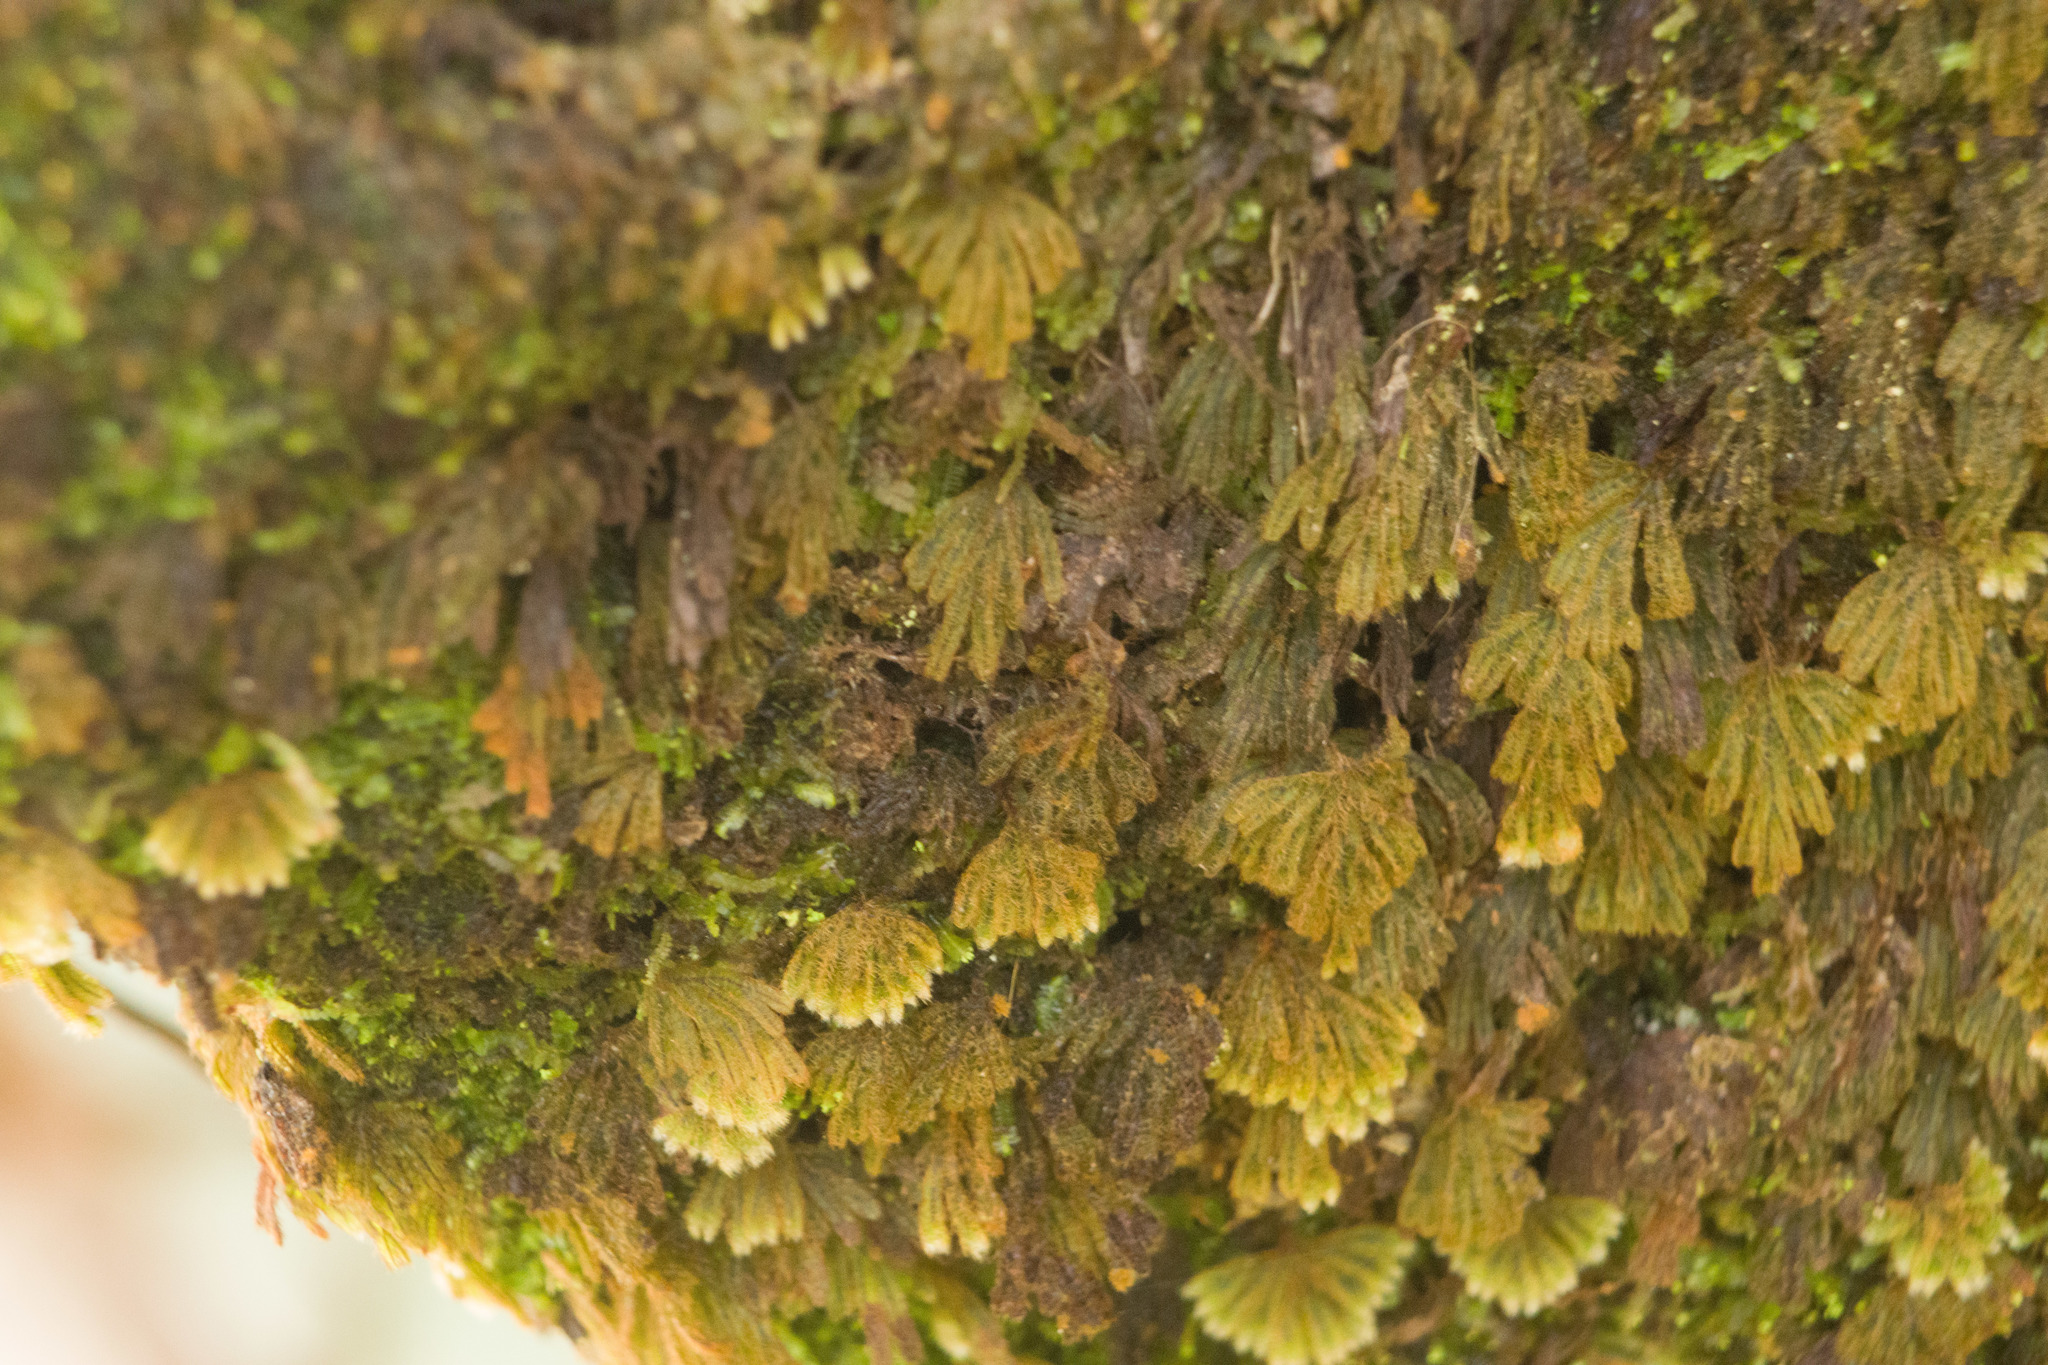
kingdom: Plantae
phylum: Tracheophyta
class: Polypodiopsida
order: Hymenophyllales
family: Hymenophyllaceae
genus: Hymenophyllum
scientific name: Hymenophyllum obtusum
